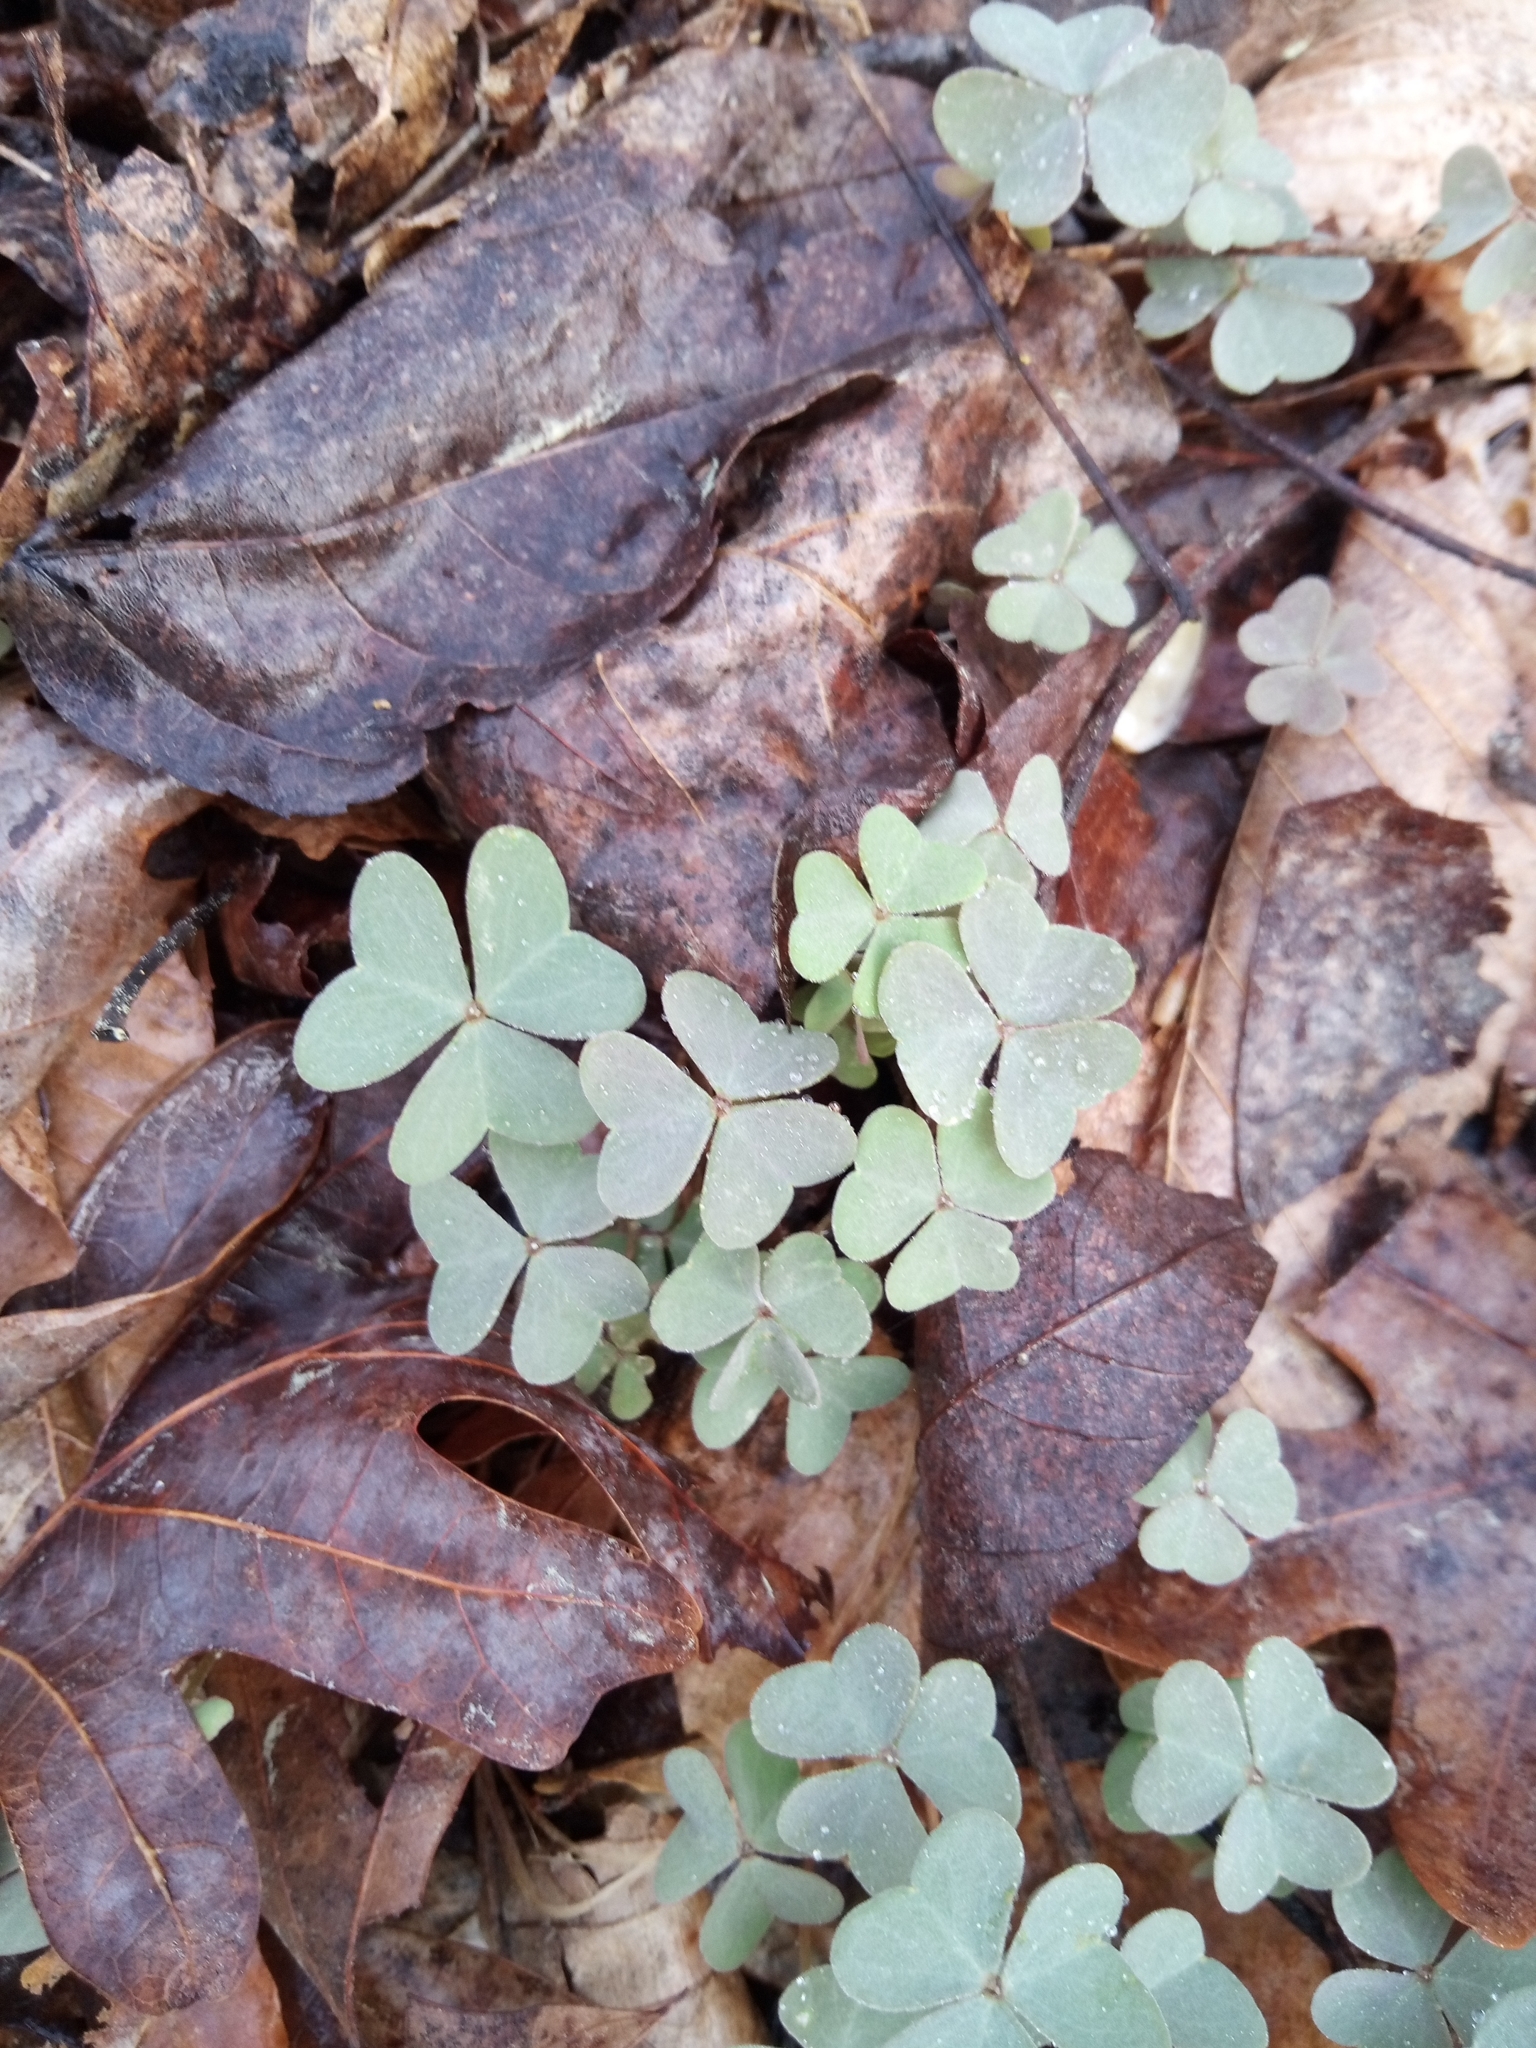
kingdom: Plantae
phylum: Tracheophyta
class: Magnoliopsida
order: Oxalidales
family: Oxalidaceae
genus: Oxalis
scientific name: Oxalis violacea
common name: Violet wood-sorrel
